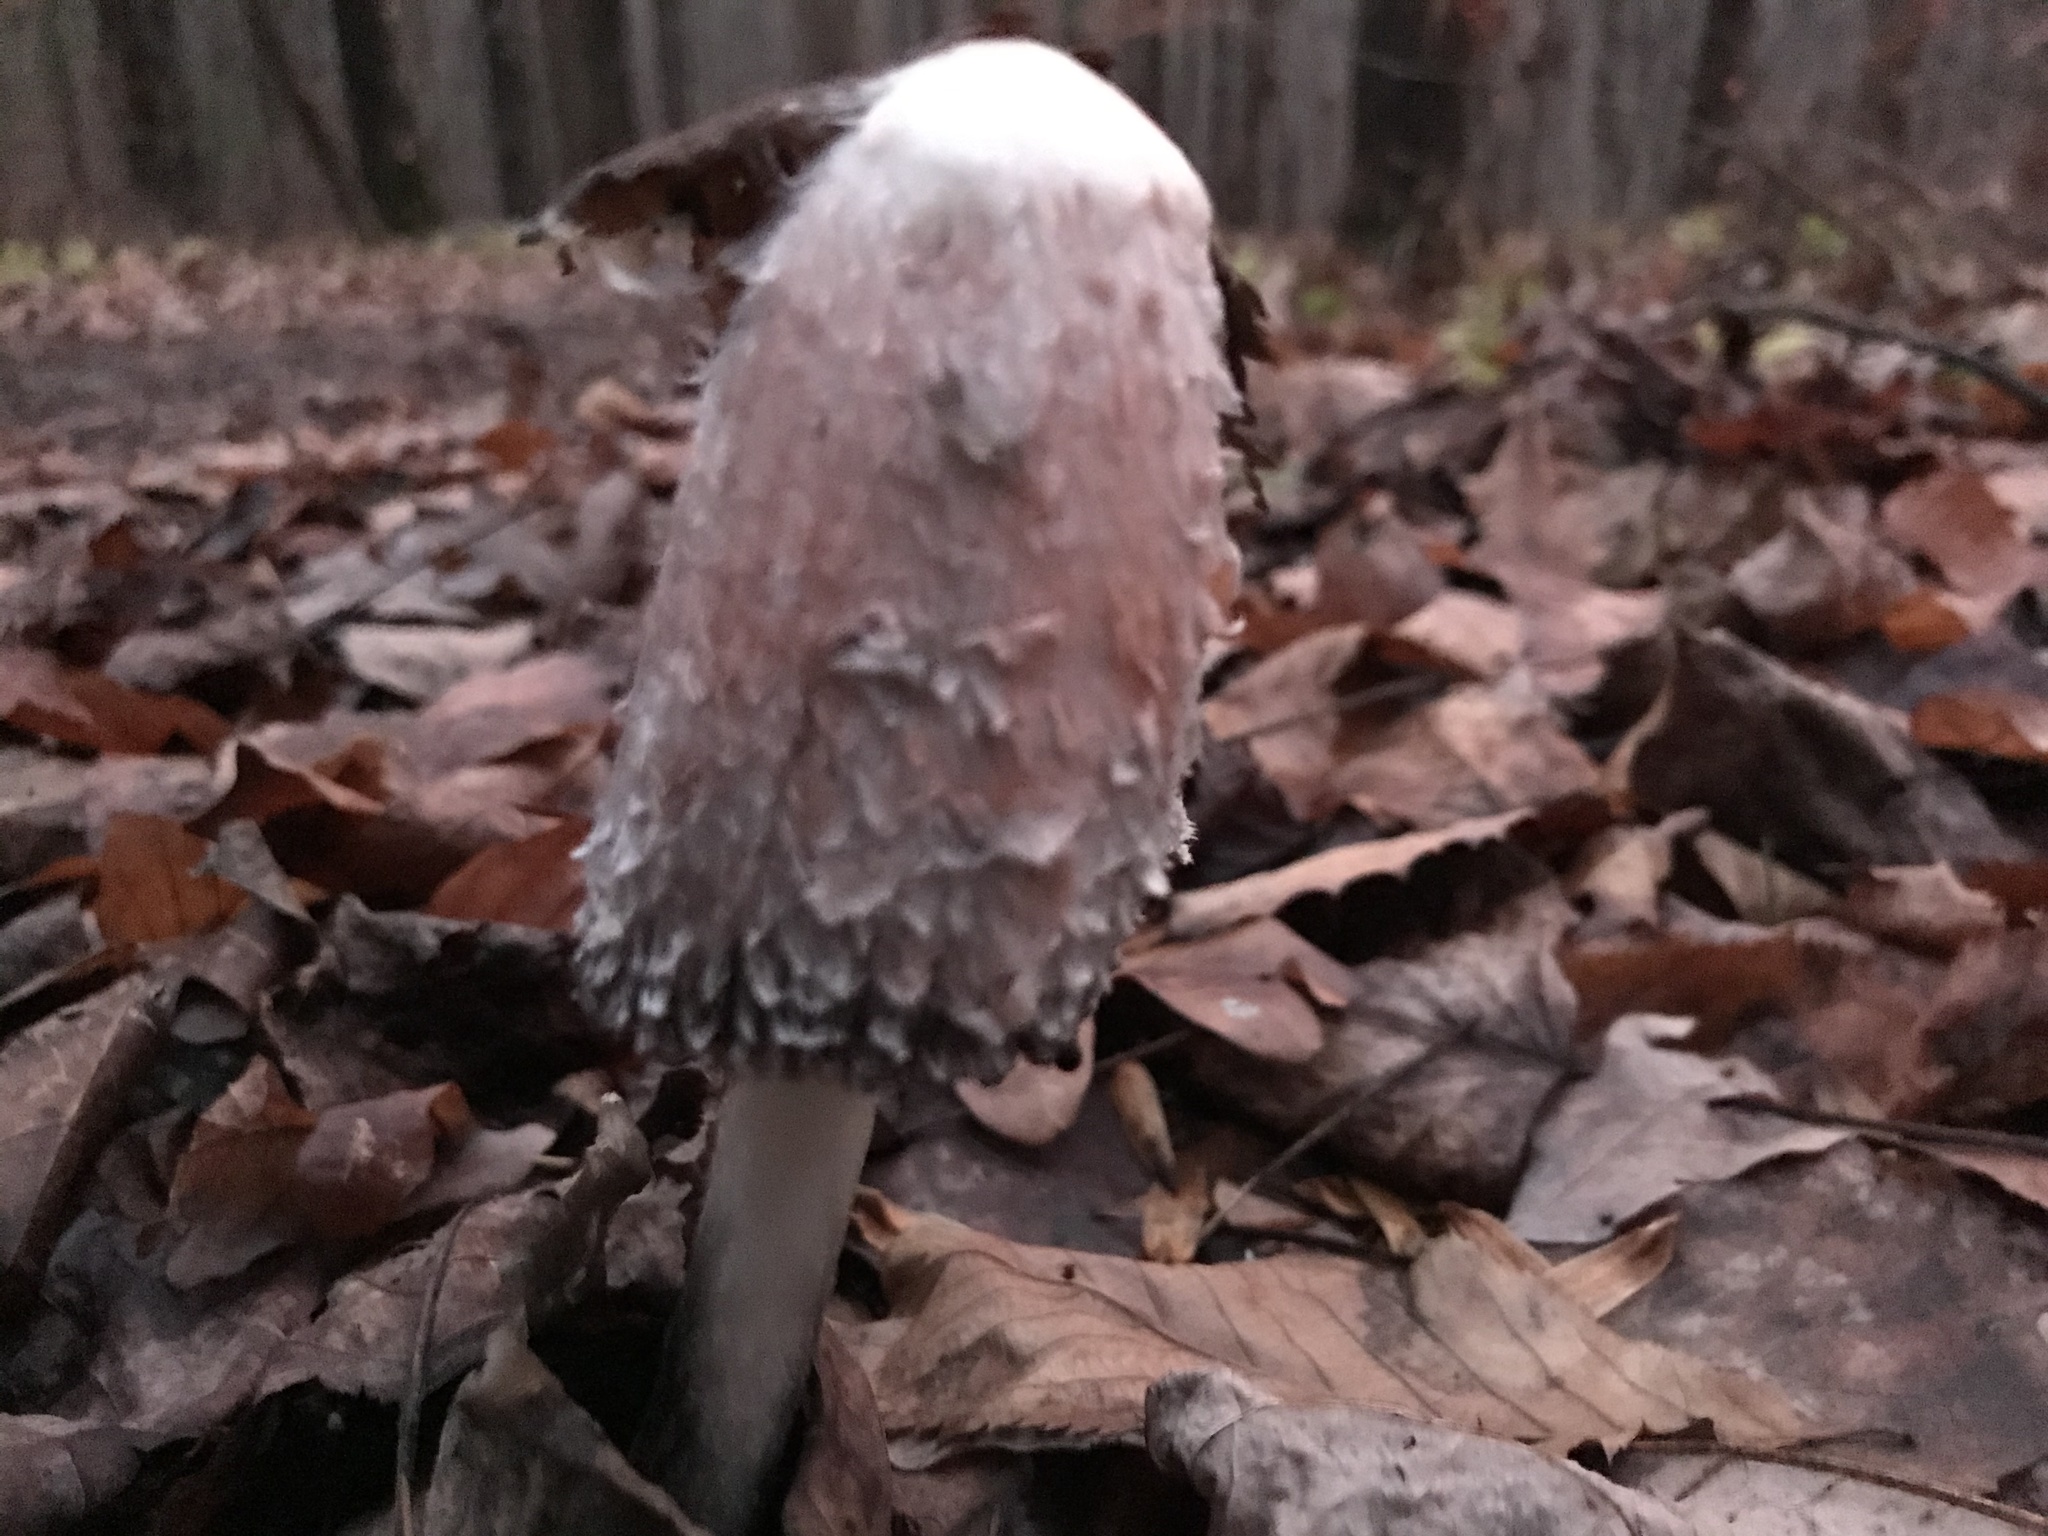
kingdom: Fungi
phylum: Basidiomycota
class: Agaricomycetes
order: Agaricales
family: Agaricaceae
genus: Coprinus
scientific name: Coprinus comatus
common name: Lawyer's wig
